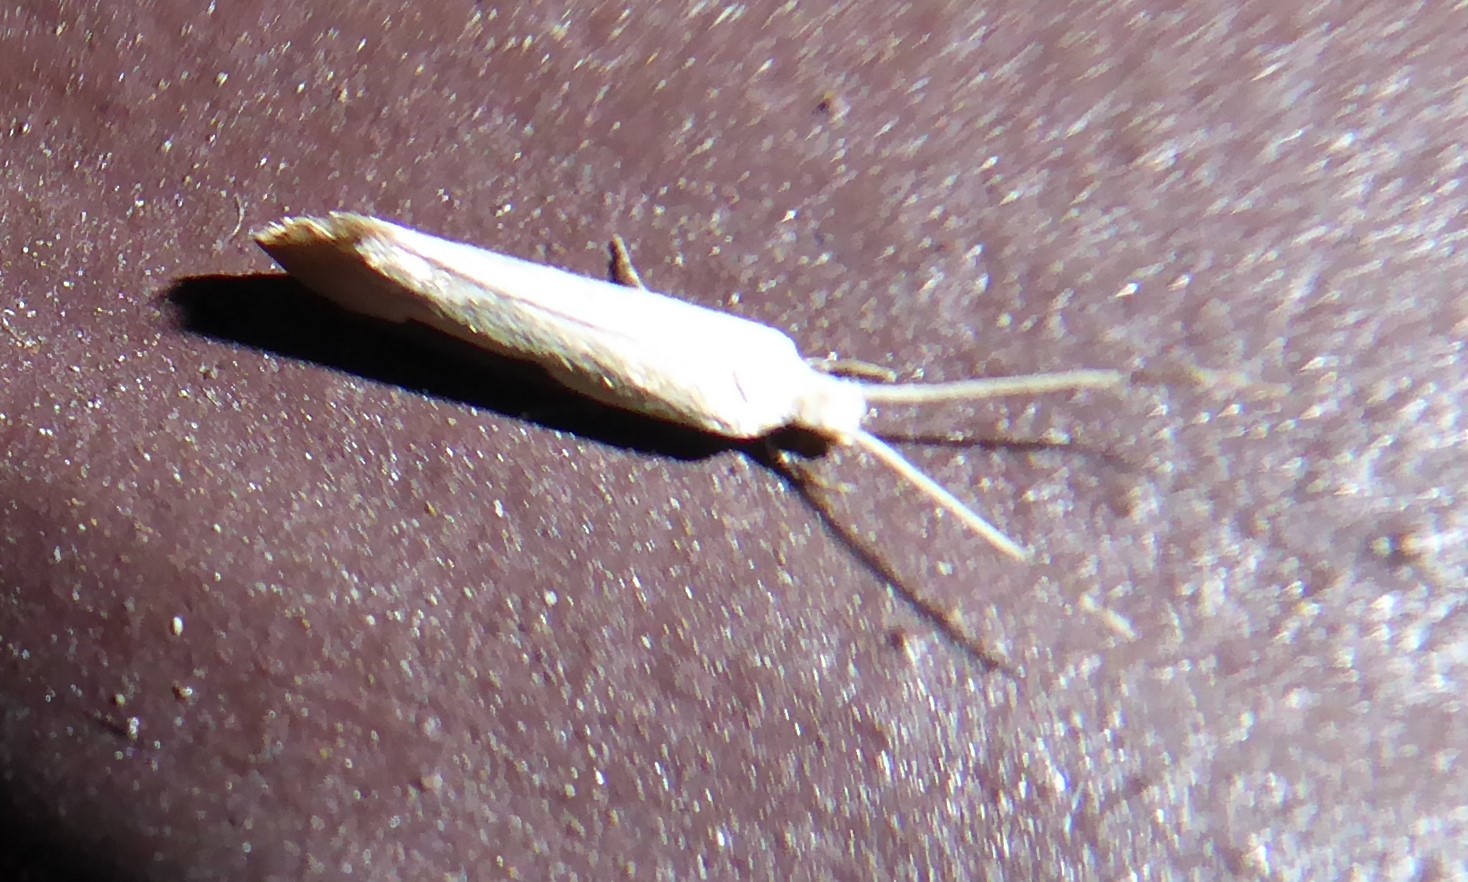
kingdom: Animalia
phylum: Arthropoda
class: Insecta
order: Lepidoptera
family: Tineidae
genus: Sagephora
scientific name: Sagephora phortegella
